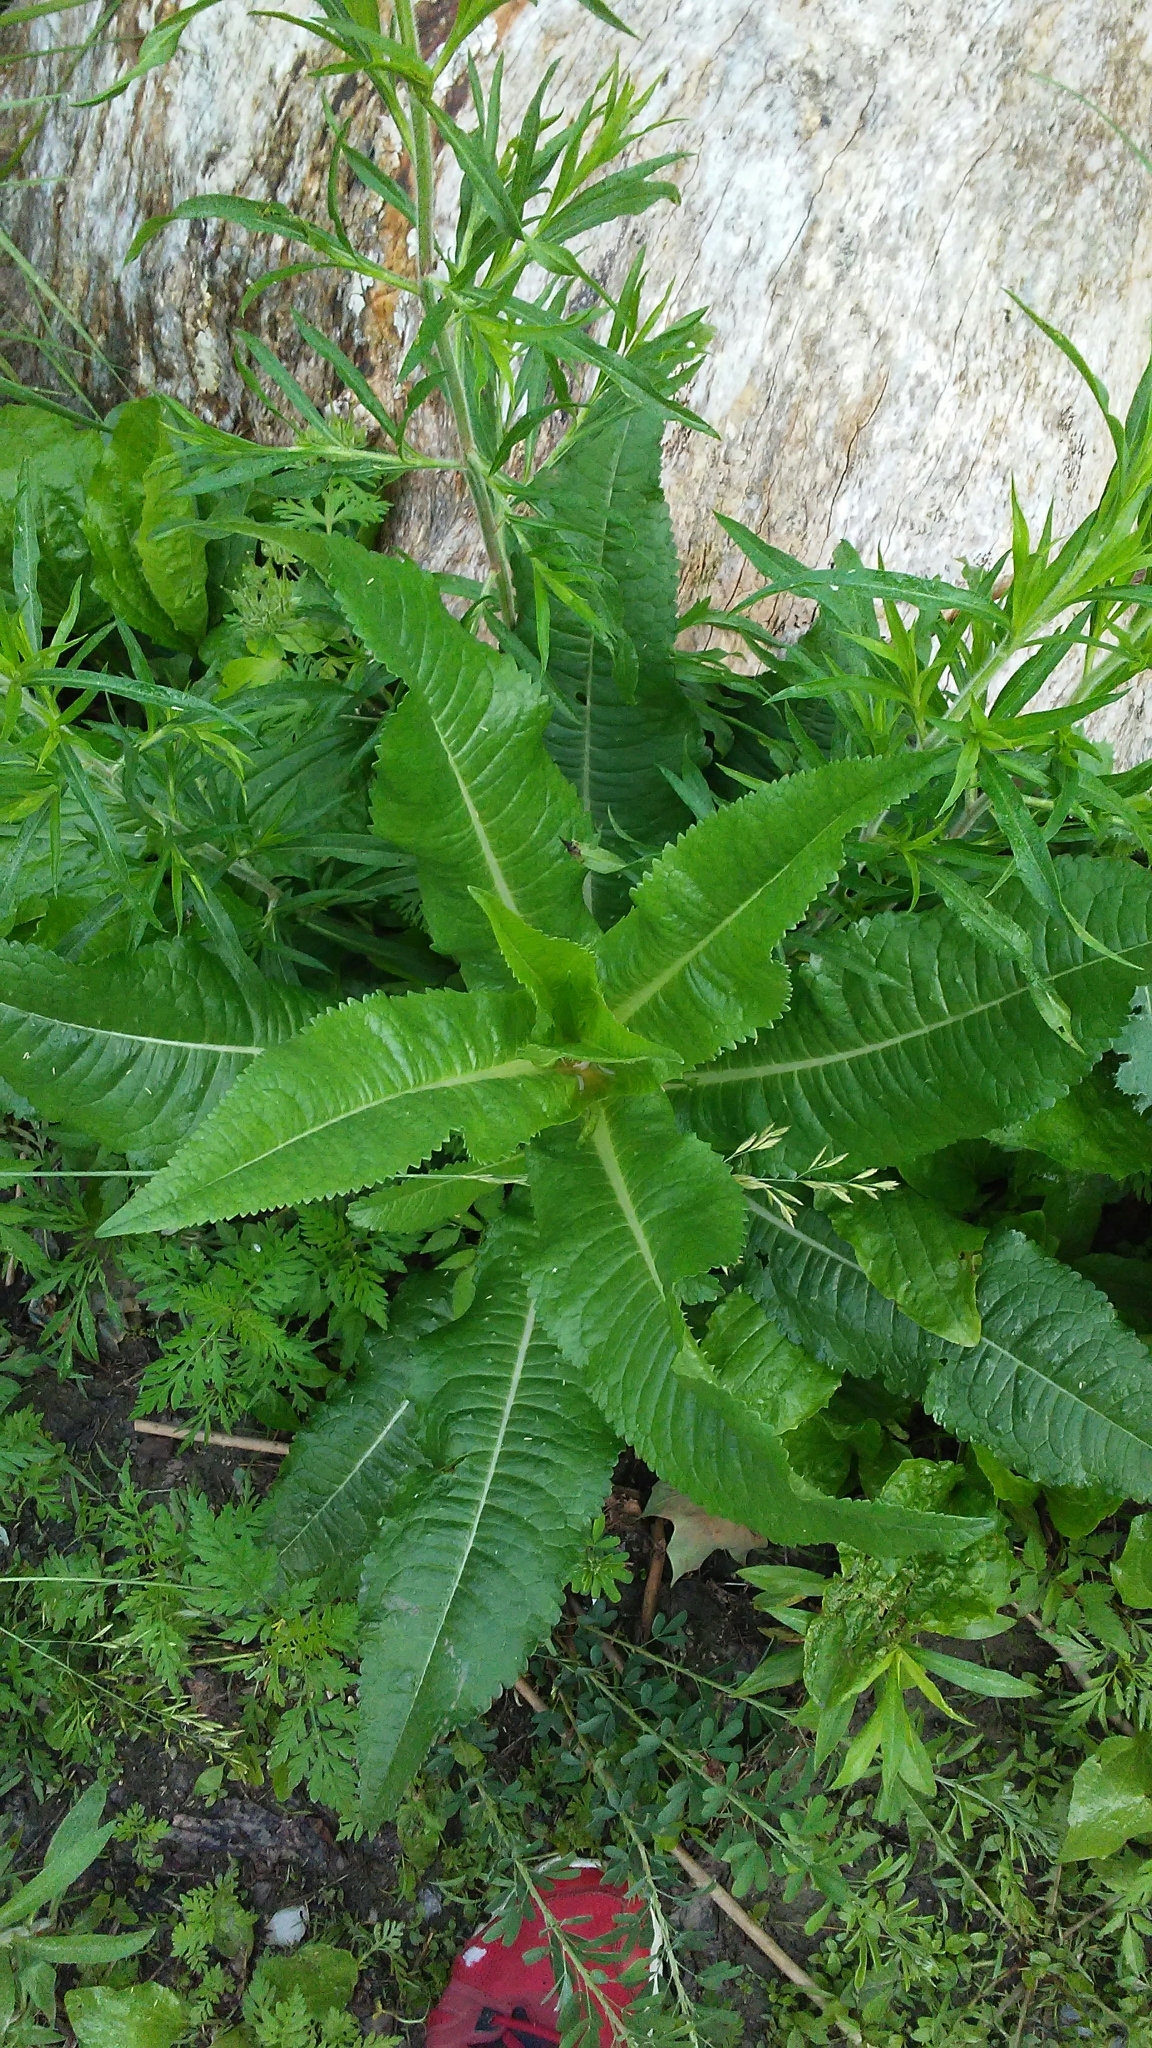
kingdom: Plantae
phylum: Tracheophyta
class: Magnoliopsida
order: Dipsacales
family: Caprifoliaceae
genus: Dipsacus
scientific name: Dipsacus fullonum
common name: Teasel
